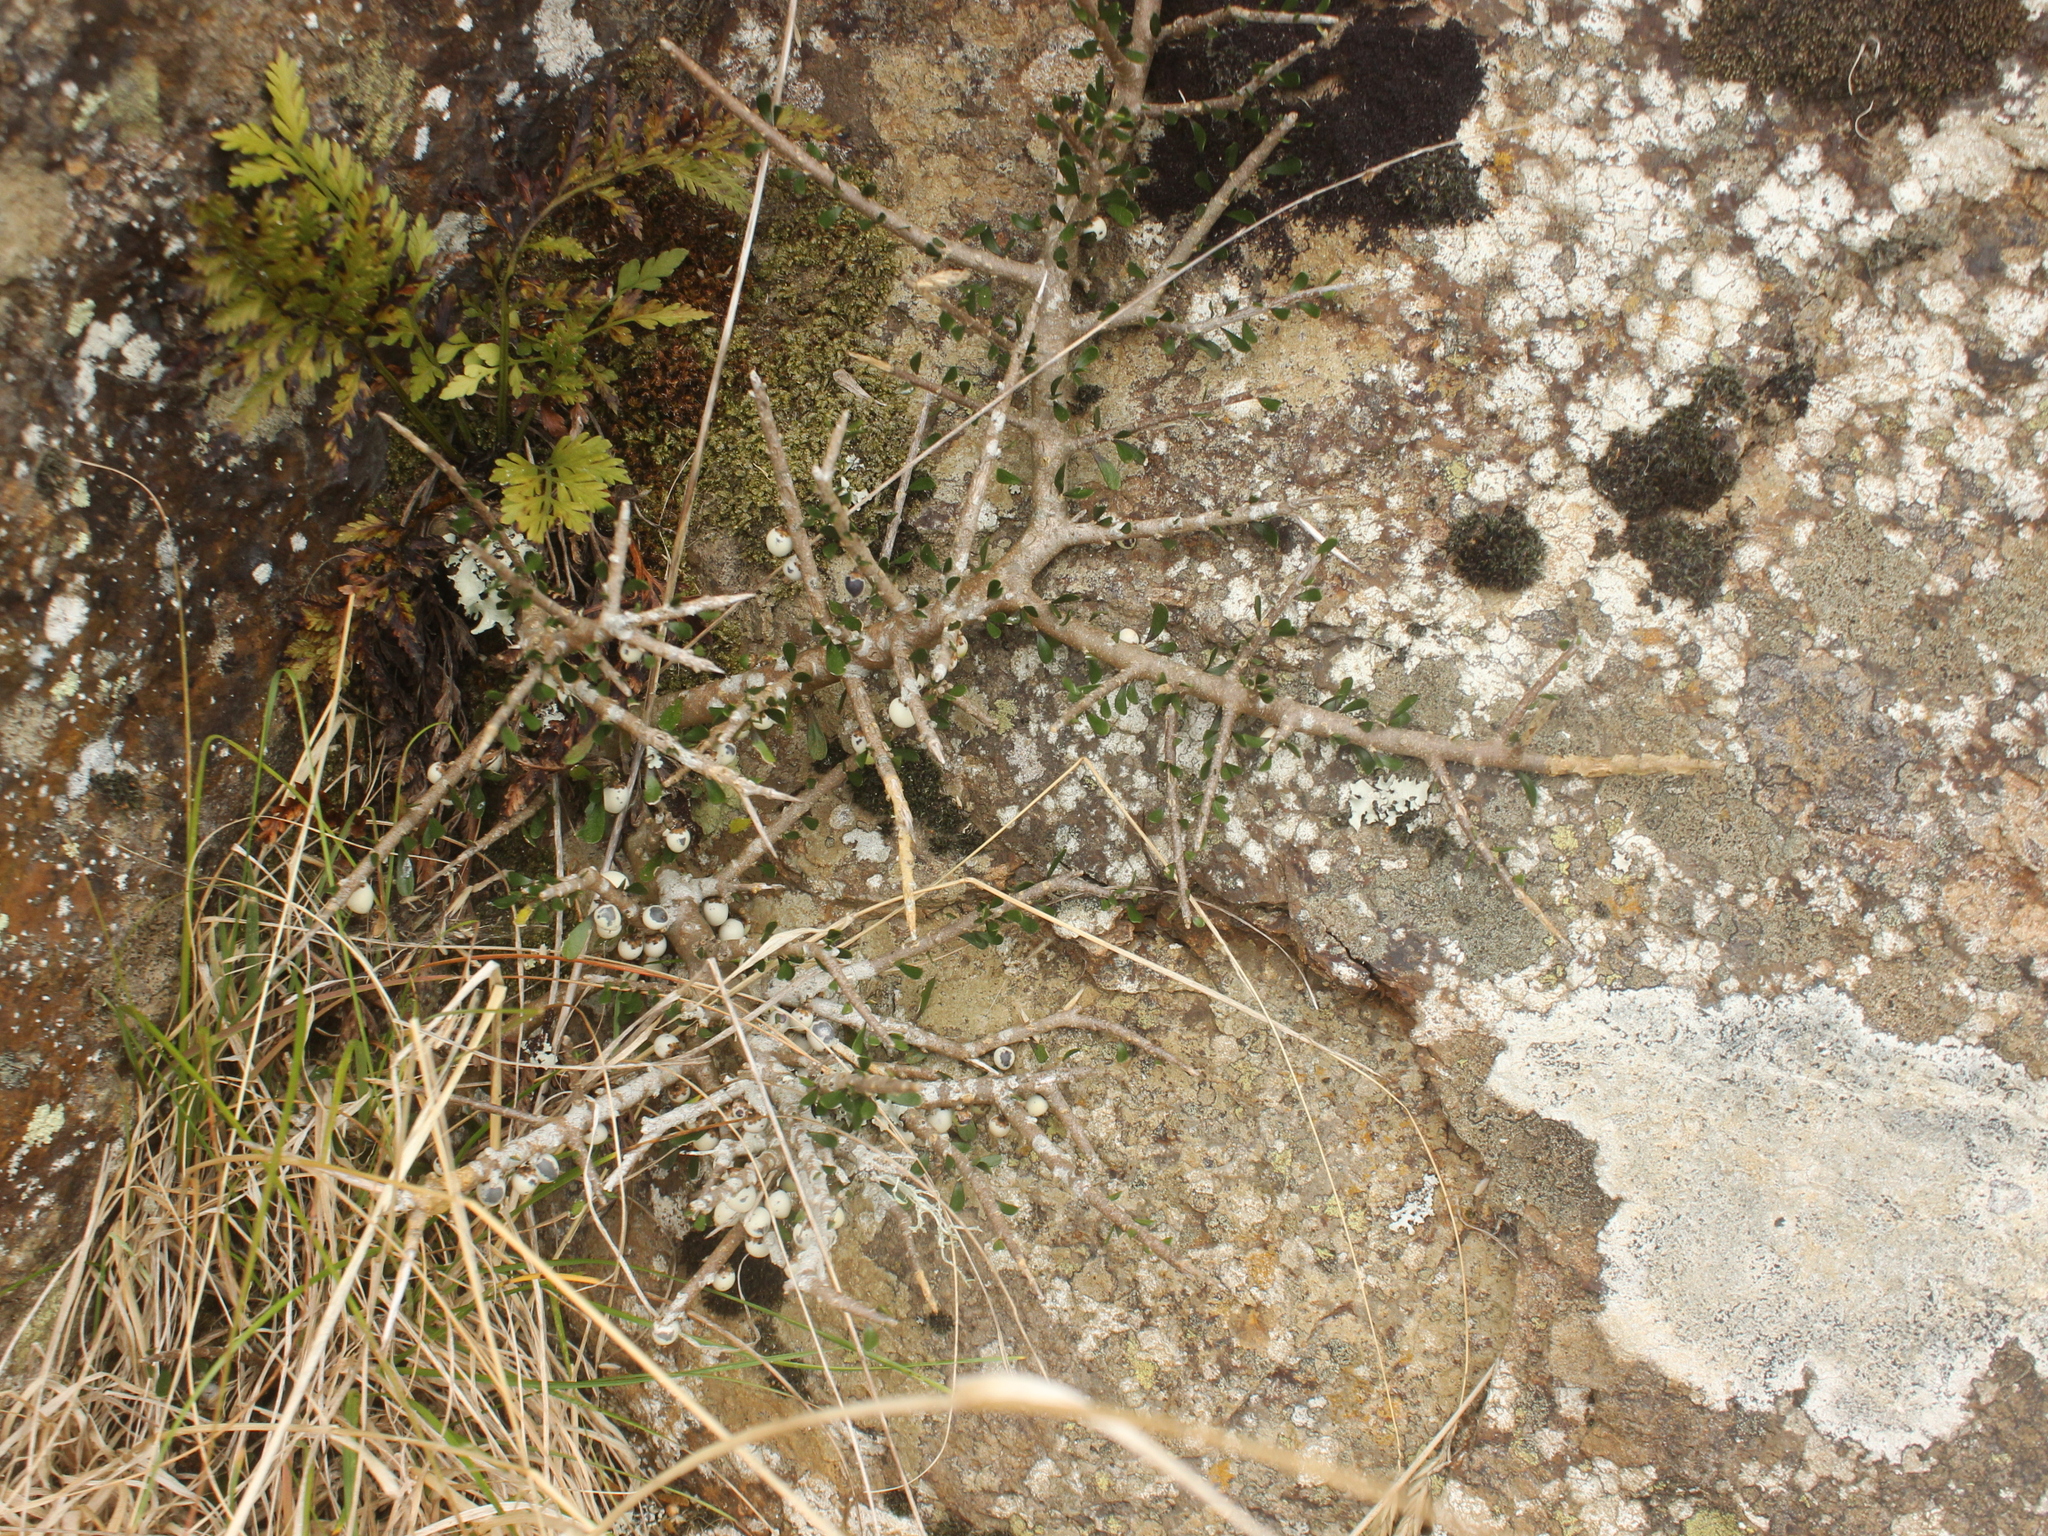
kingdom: Plantae
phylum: Tracheophyta
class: Magnoliopsida
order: Malpighiales
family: Violaceae
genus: Melicytus
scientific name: Melicytus alpinus
